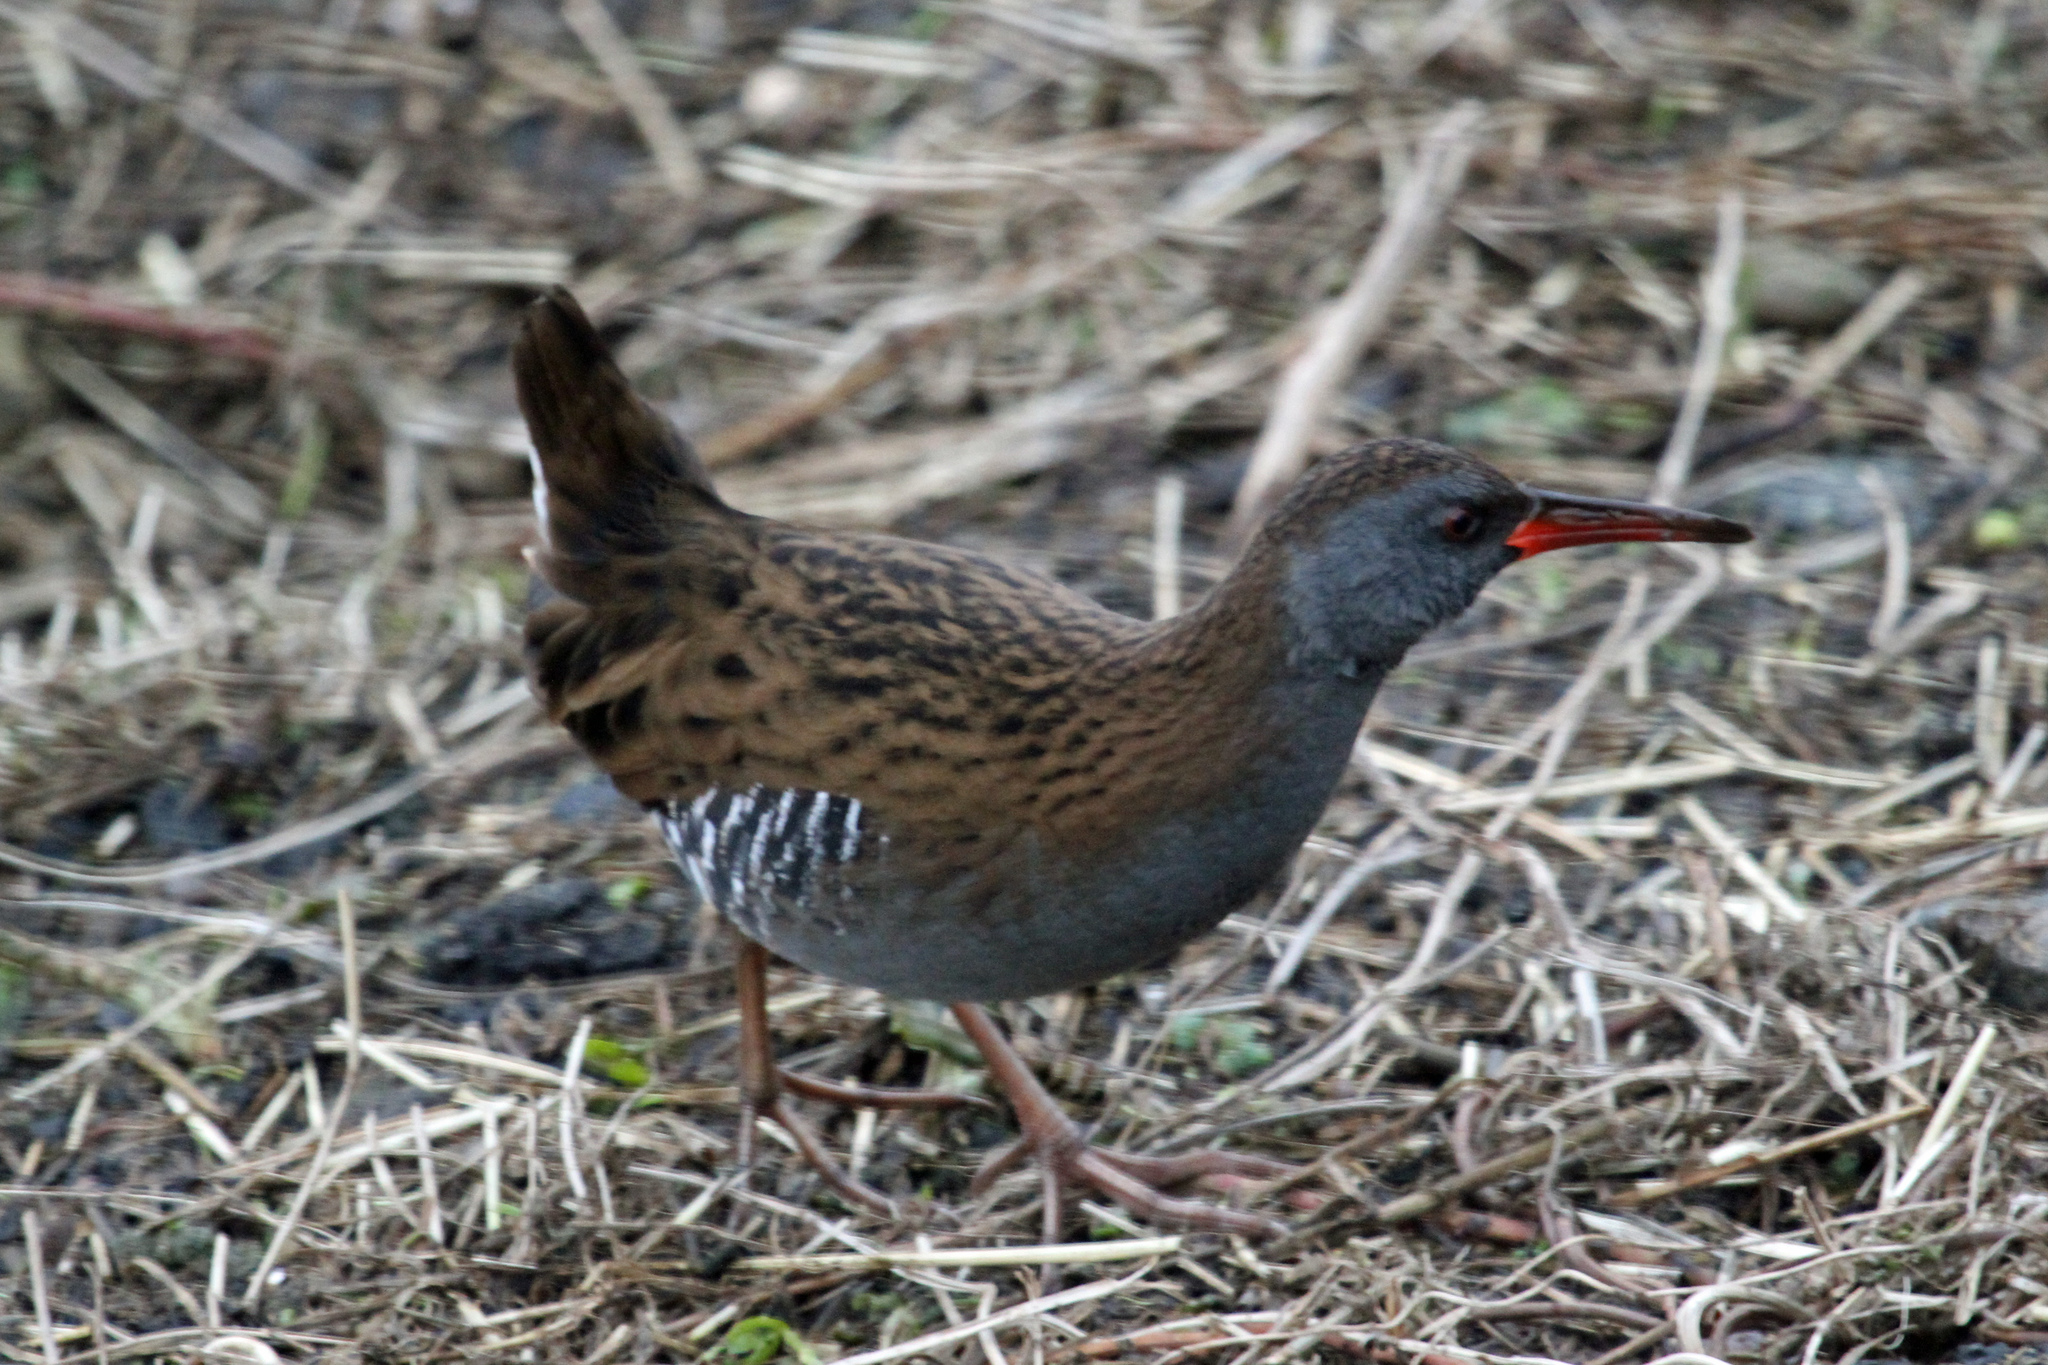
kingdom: Animalia
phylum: Chordata
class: Aves
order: Gruiformes
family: Rallidae
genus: Rallus
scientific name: Rallus aquaticus
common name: Water rail
